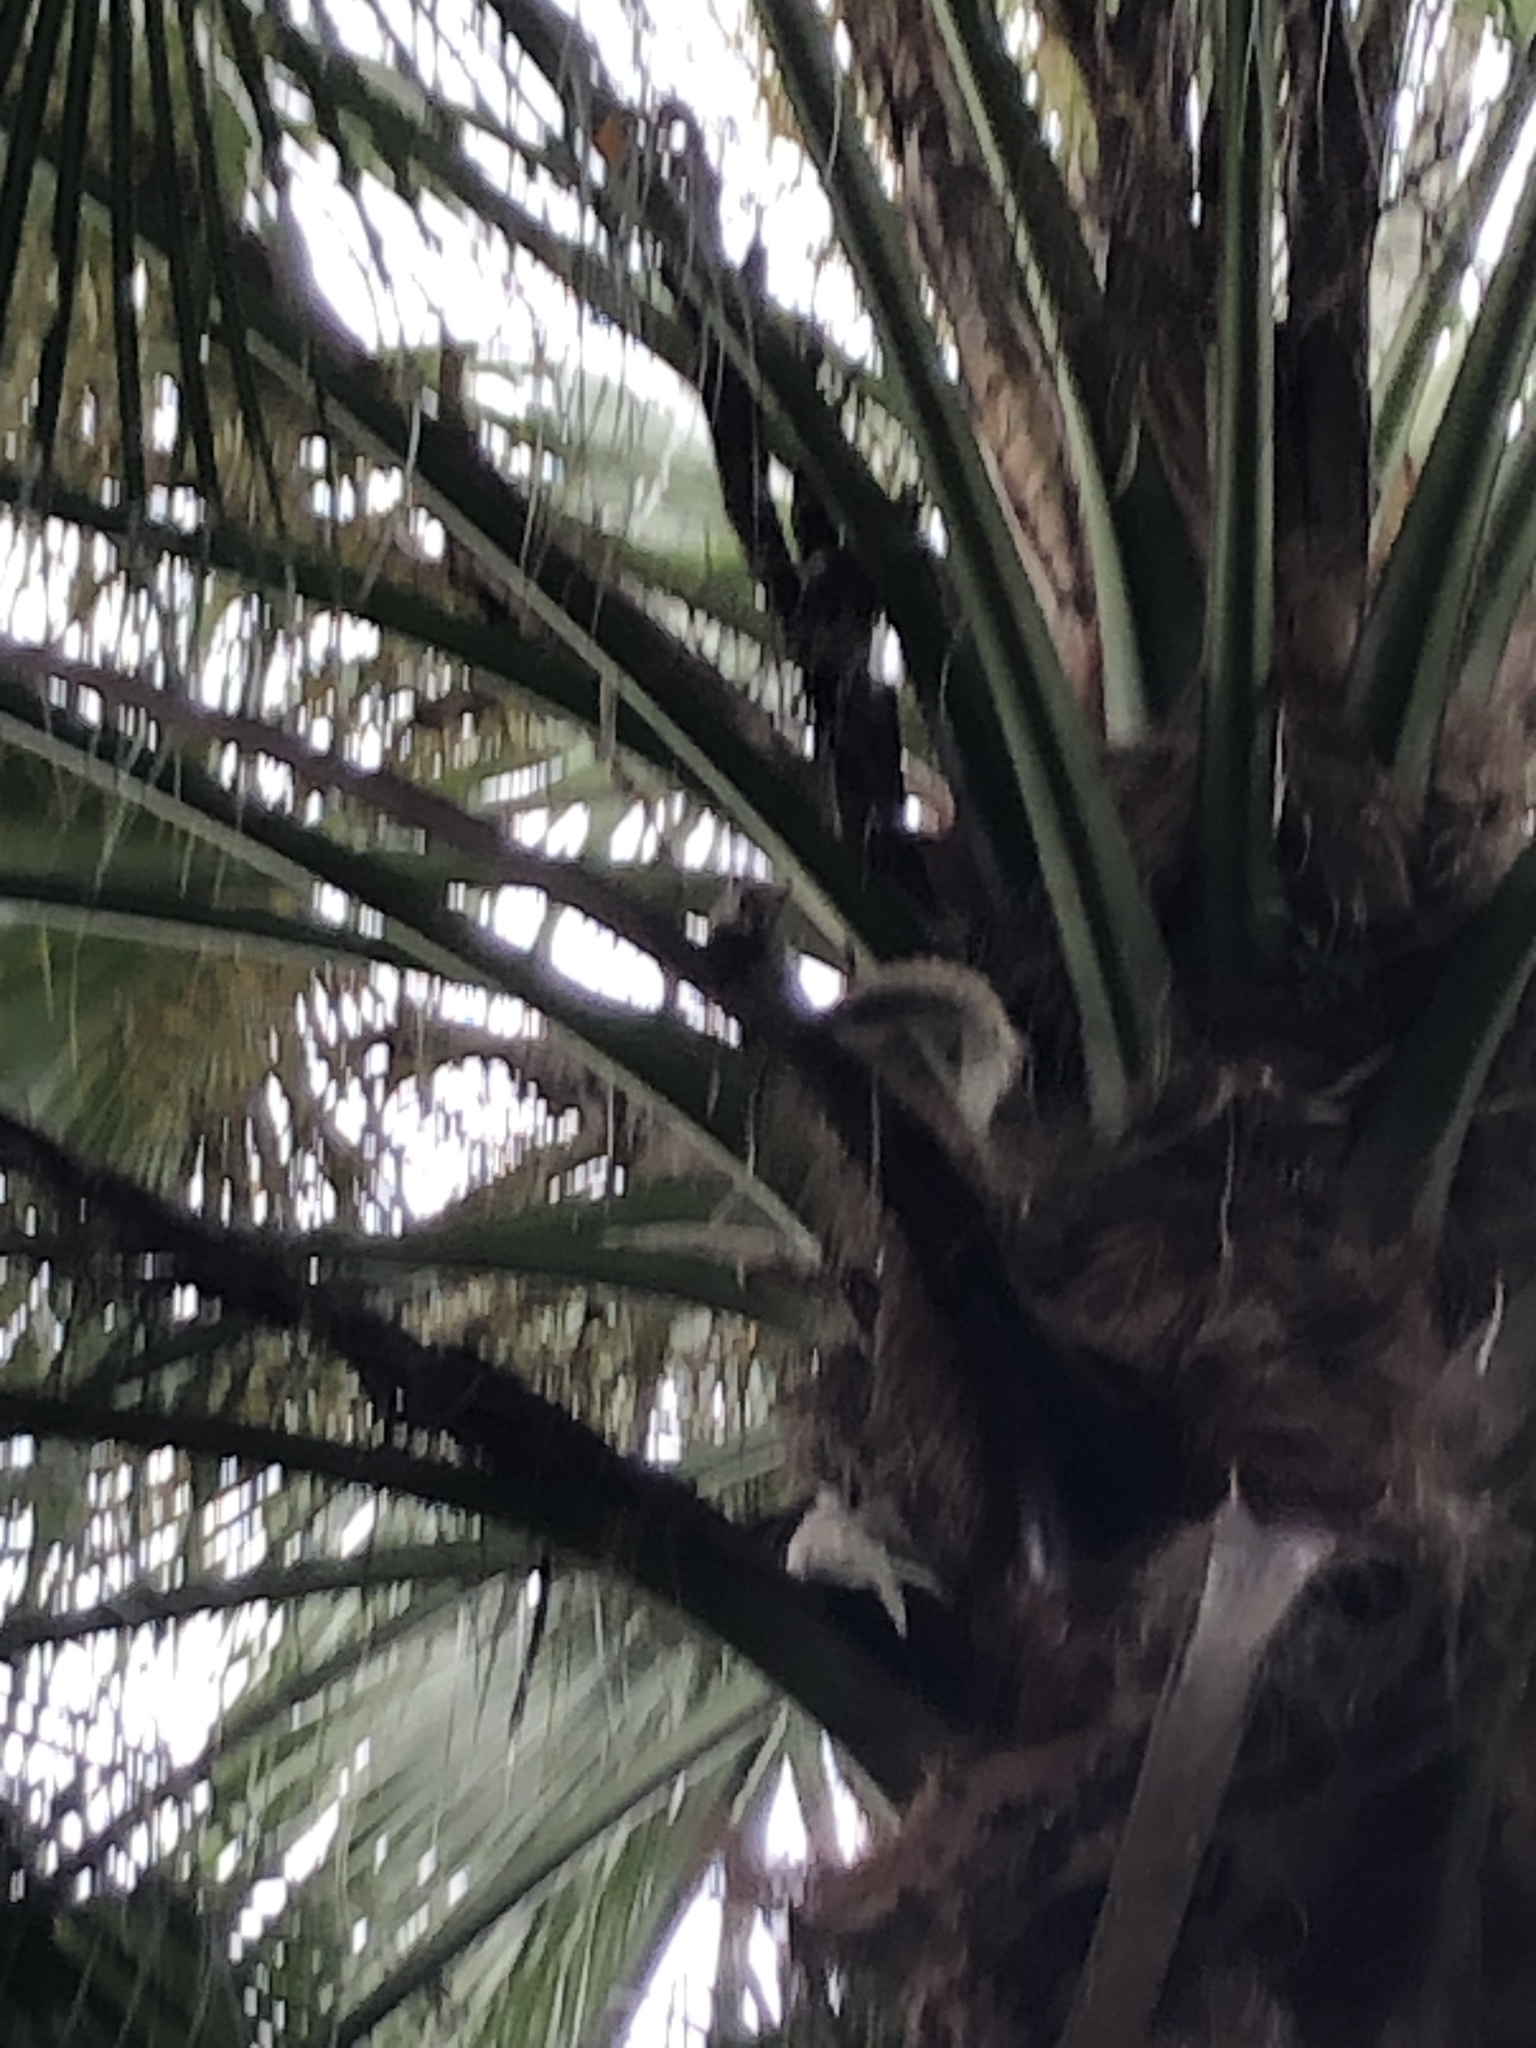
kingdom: Animalia
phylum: Chordata
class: Mammalia
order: Rodentia
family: Sciuridae
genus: Callosciurus
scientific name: Callosciurus erythraeus
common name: Pallas's squirrel
